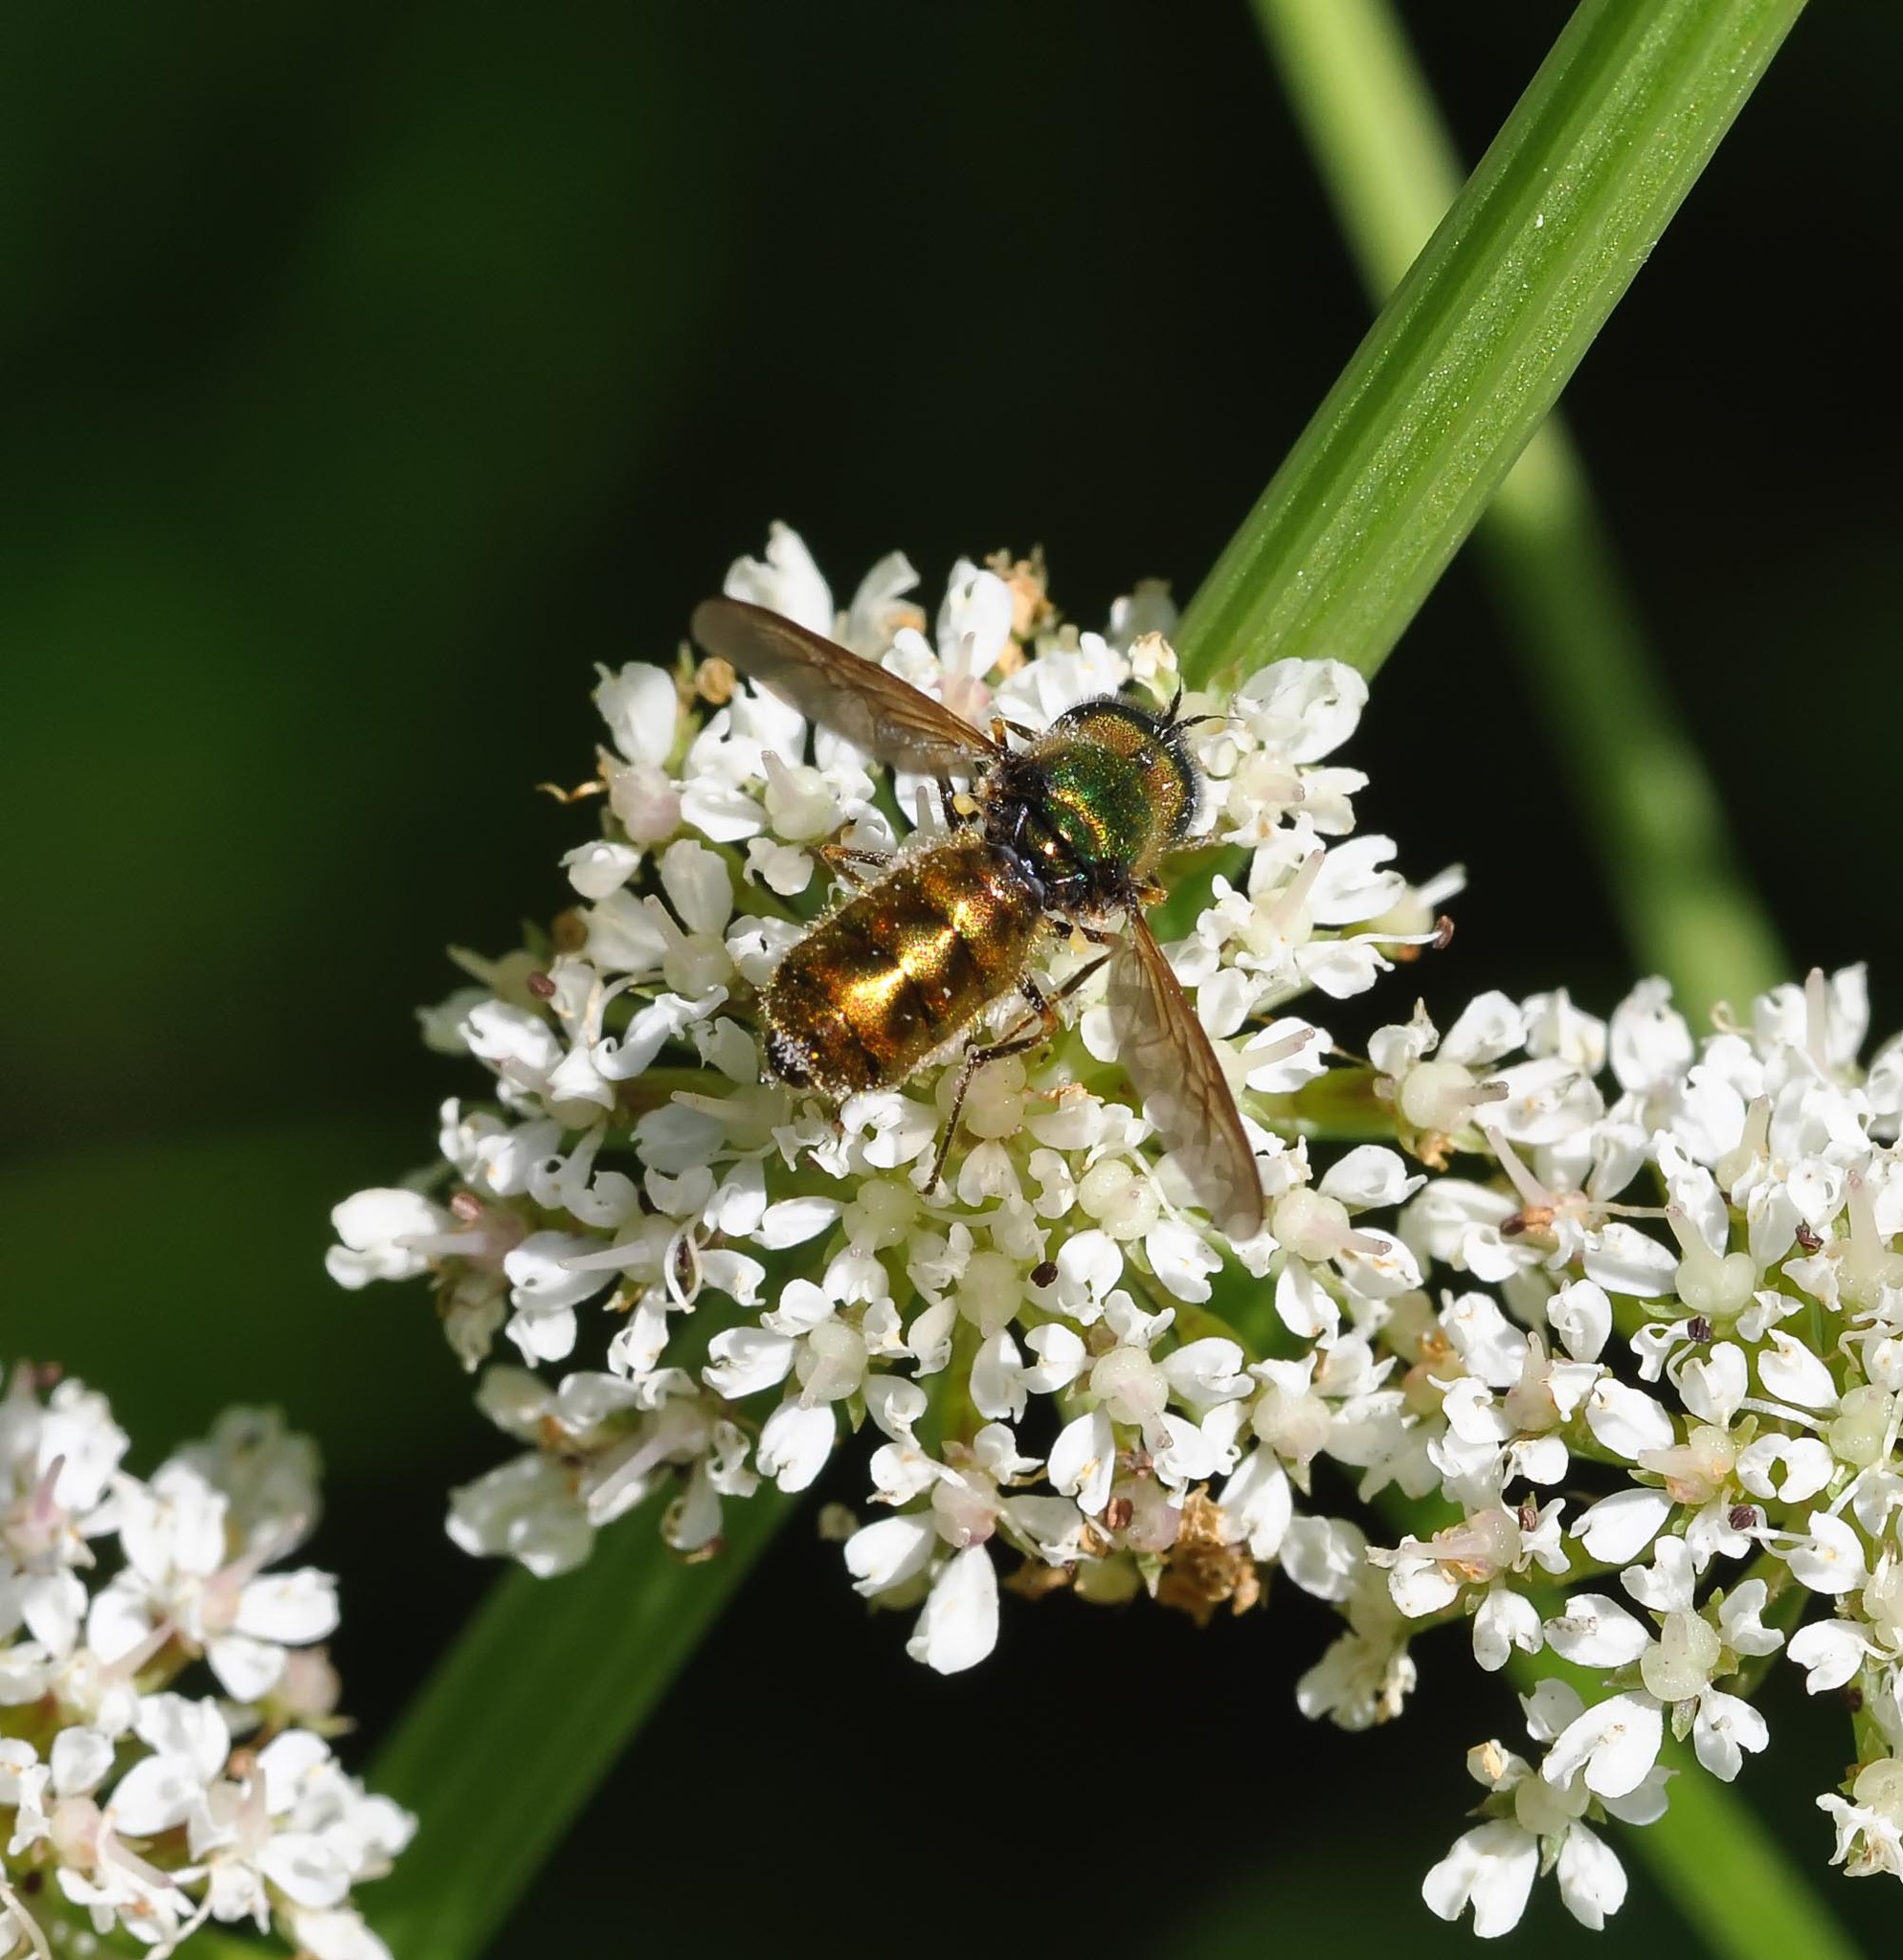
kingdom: Animalia
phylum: Arthropoda
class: Insecta
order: Diptera
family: Stratiomyidae
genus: Chloromyia
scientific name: Chloromyia formosa
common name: Soldier fly
